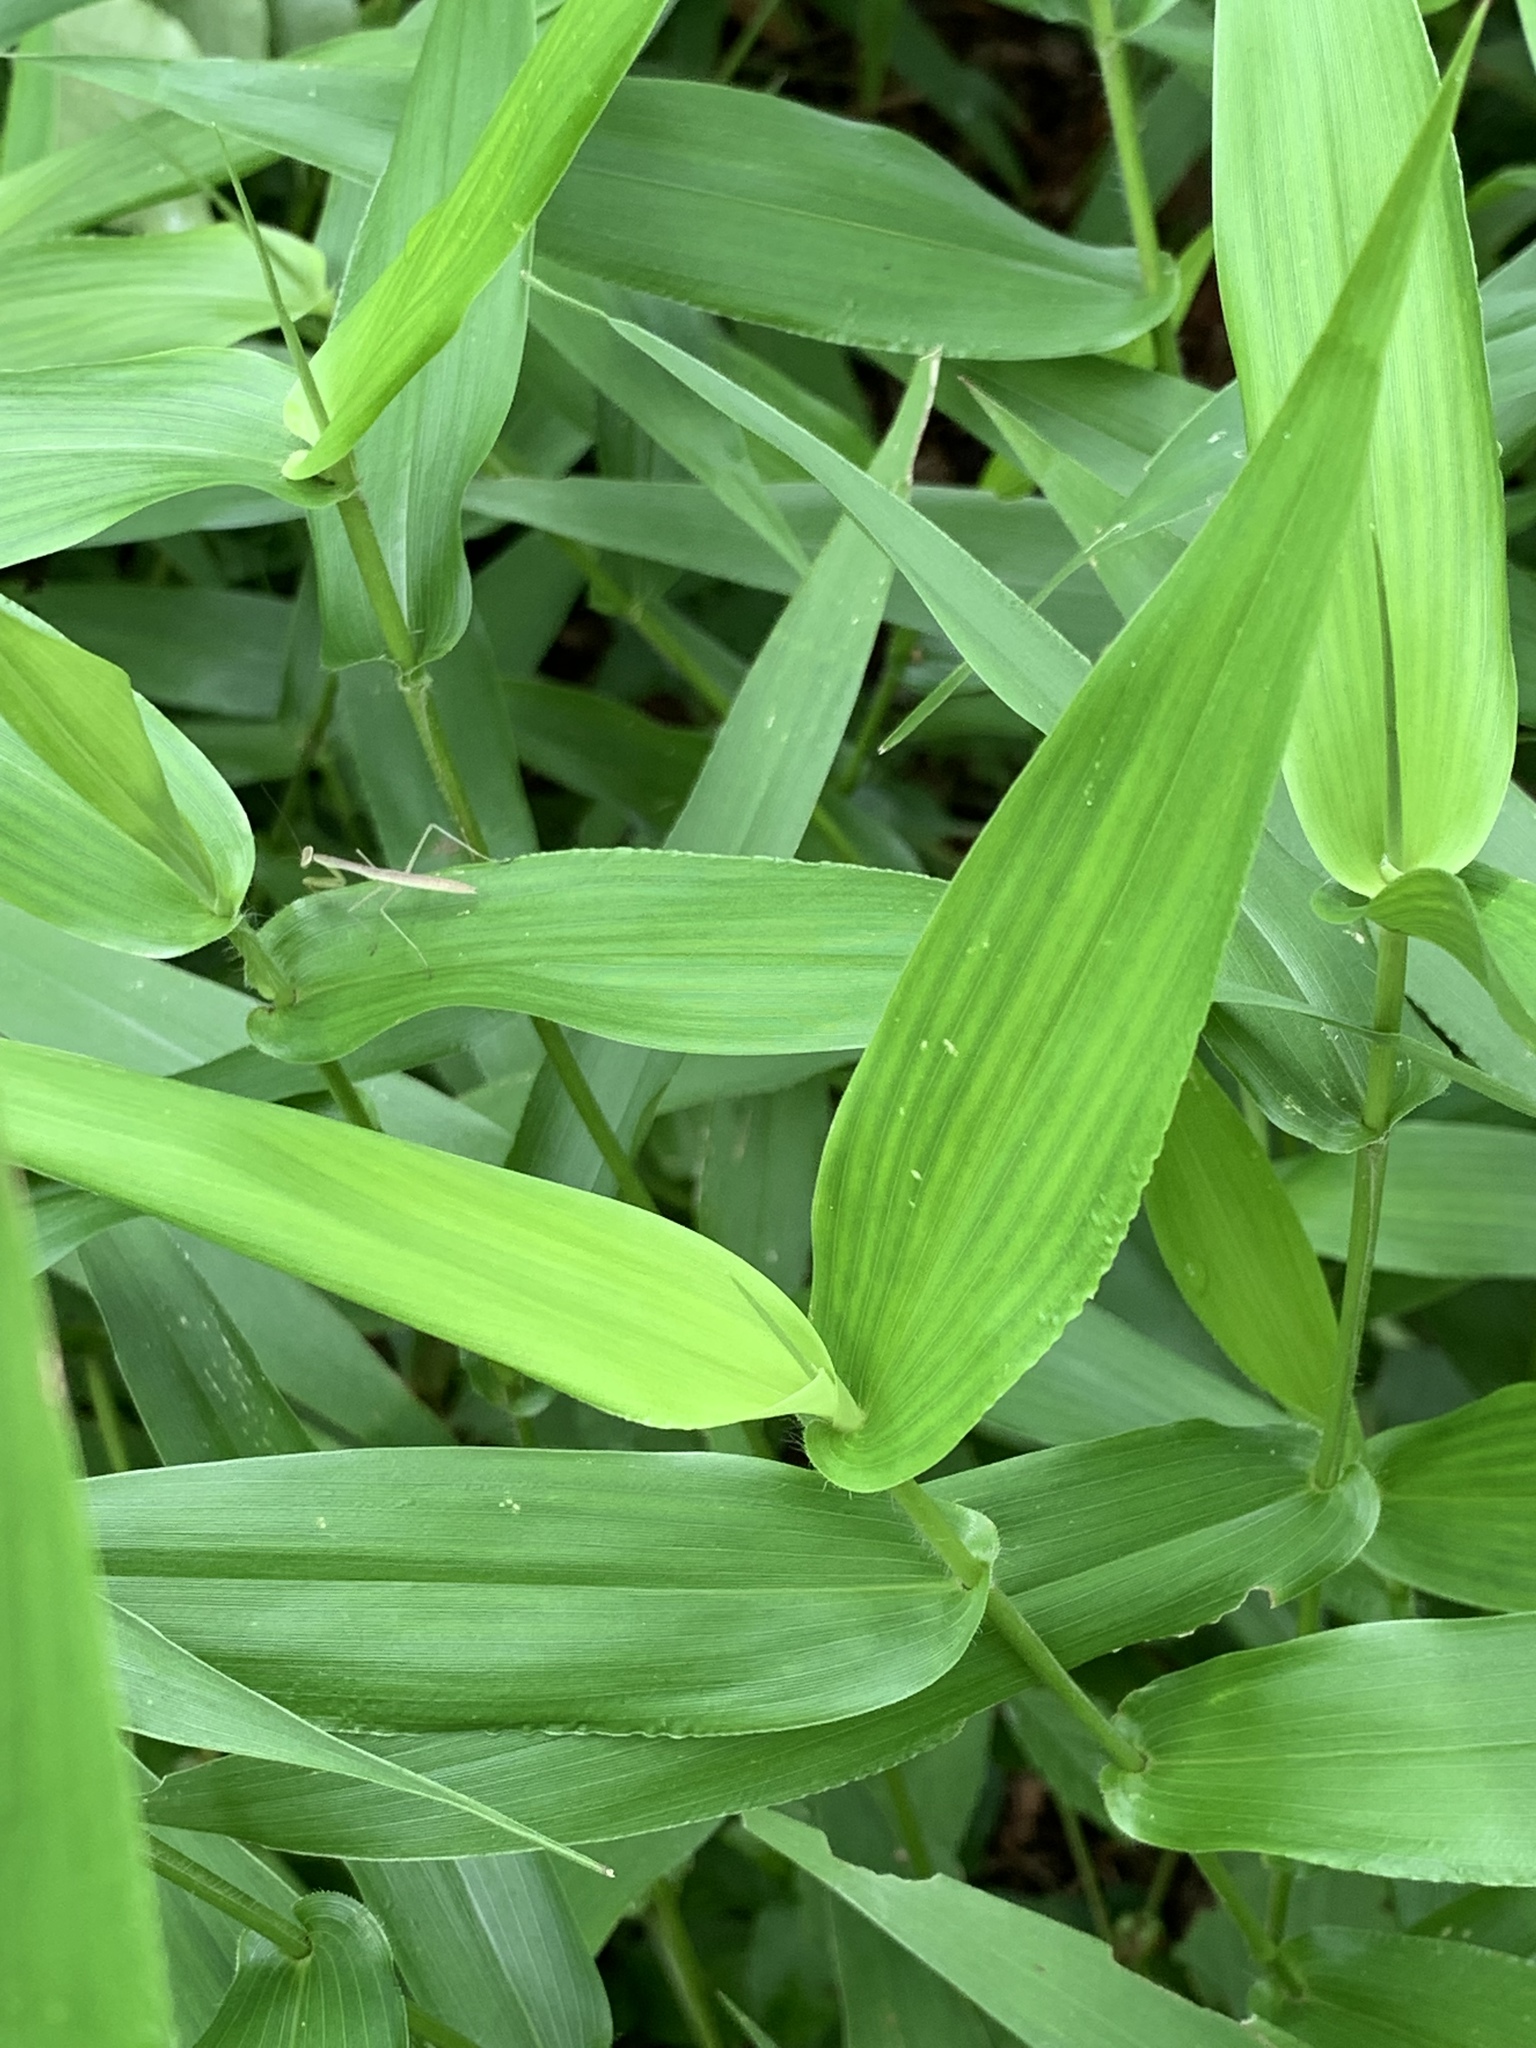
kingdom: Plantae
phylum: Tracheophyta
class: Liliopsida
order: Poales
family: Poaceae
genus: Dichanthelium
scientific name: Dichanthelium clandestinum
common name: Deer-tongue grass
